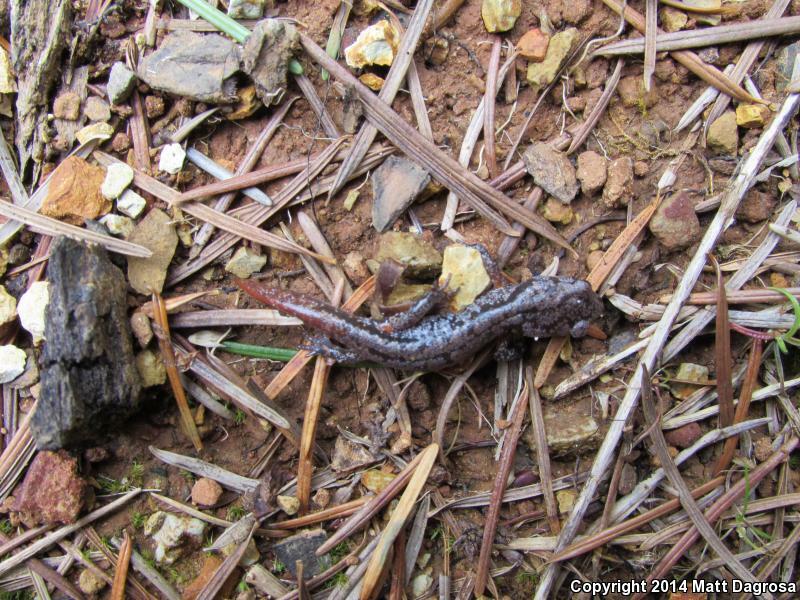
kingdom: Animalia
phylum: Chordata
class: Amphibia
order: Caudata
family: Plethodontidae
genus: Ensatina
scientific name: Ensatina eschscholtzii
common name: Ensatina
